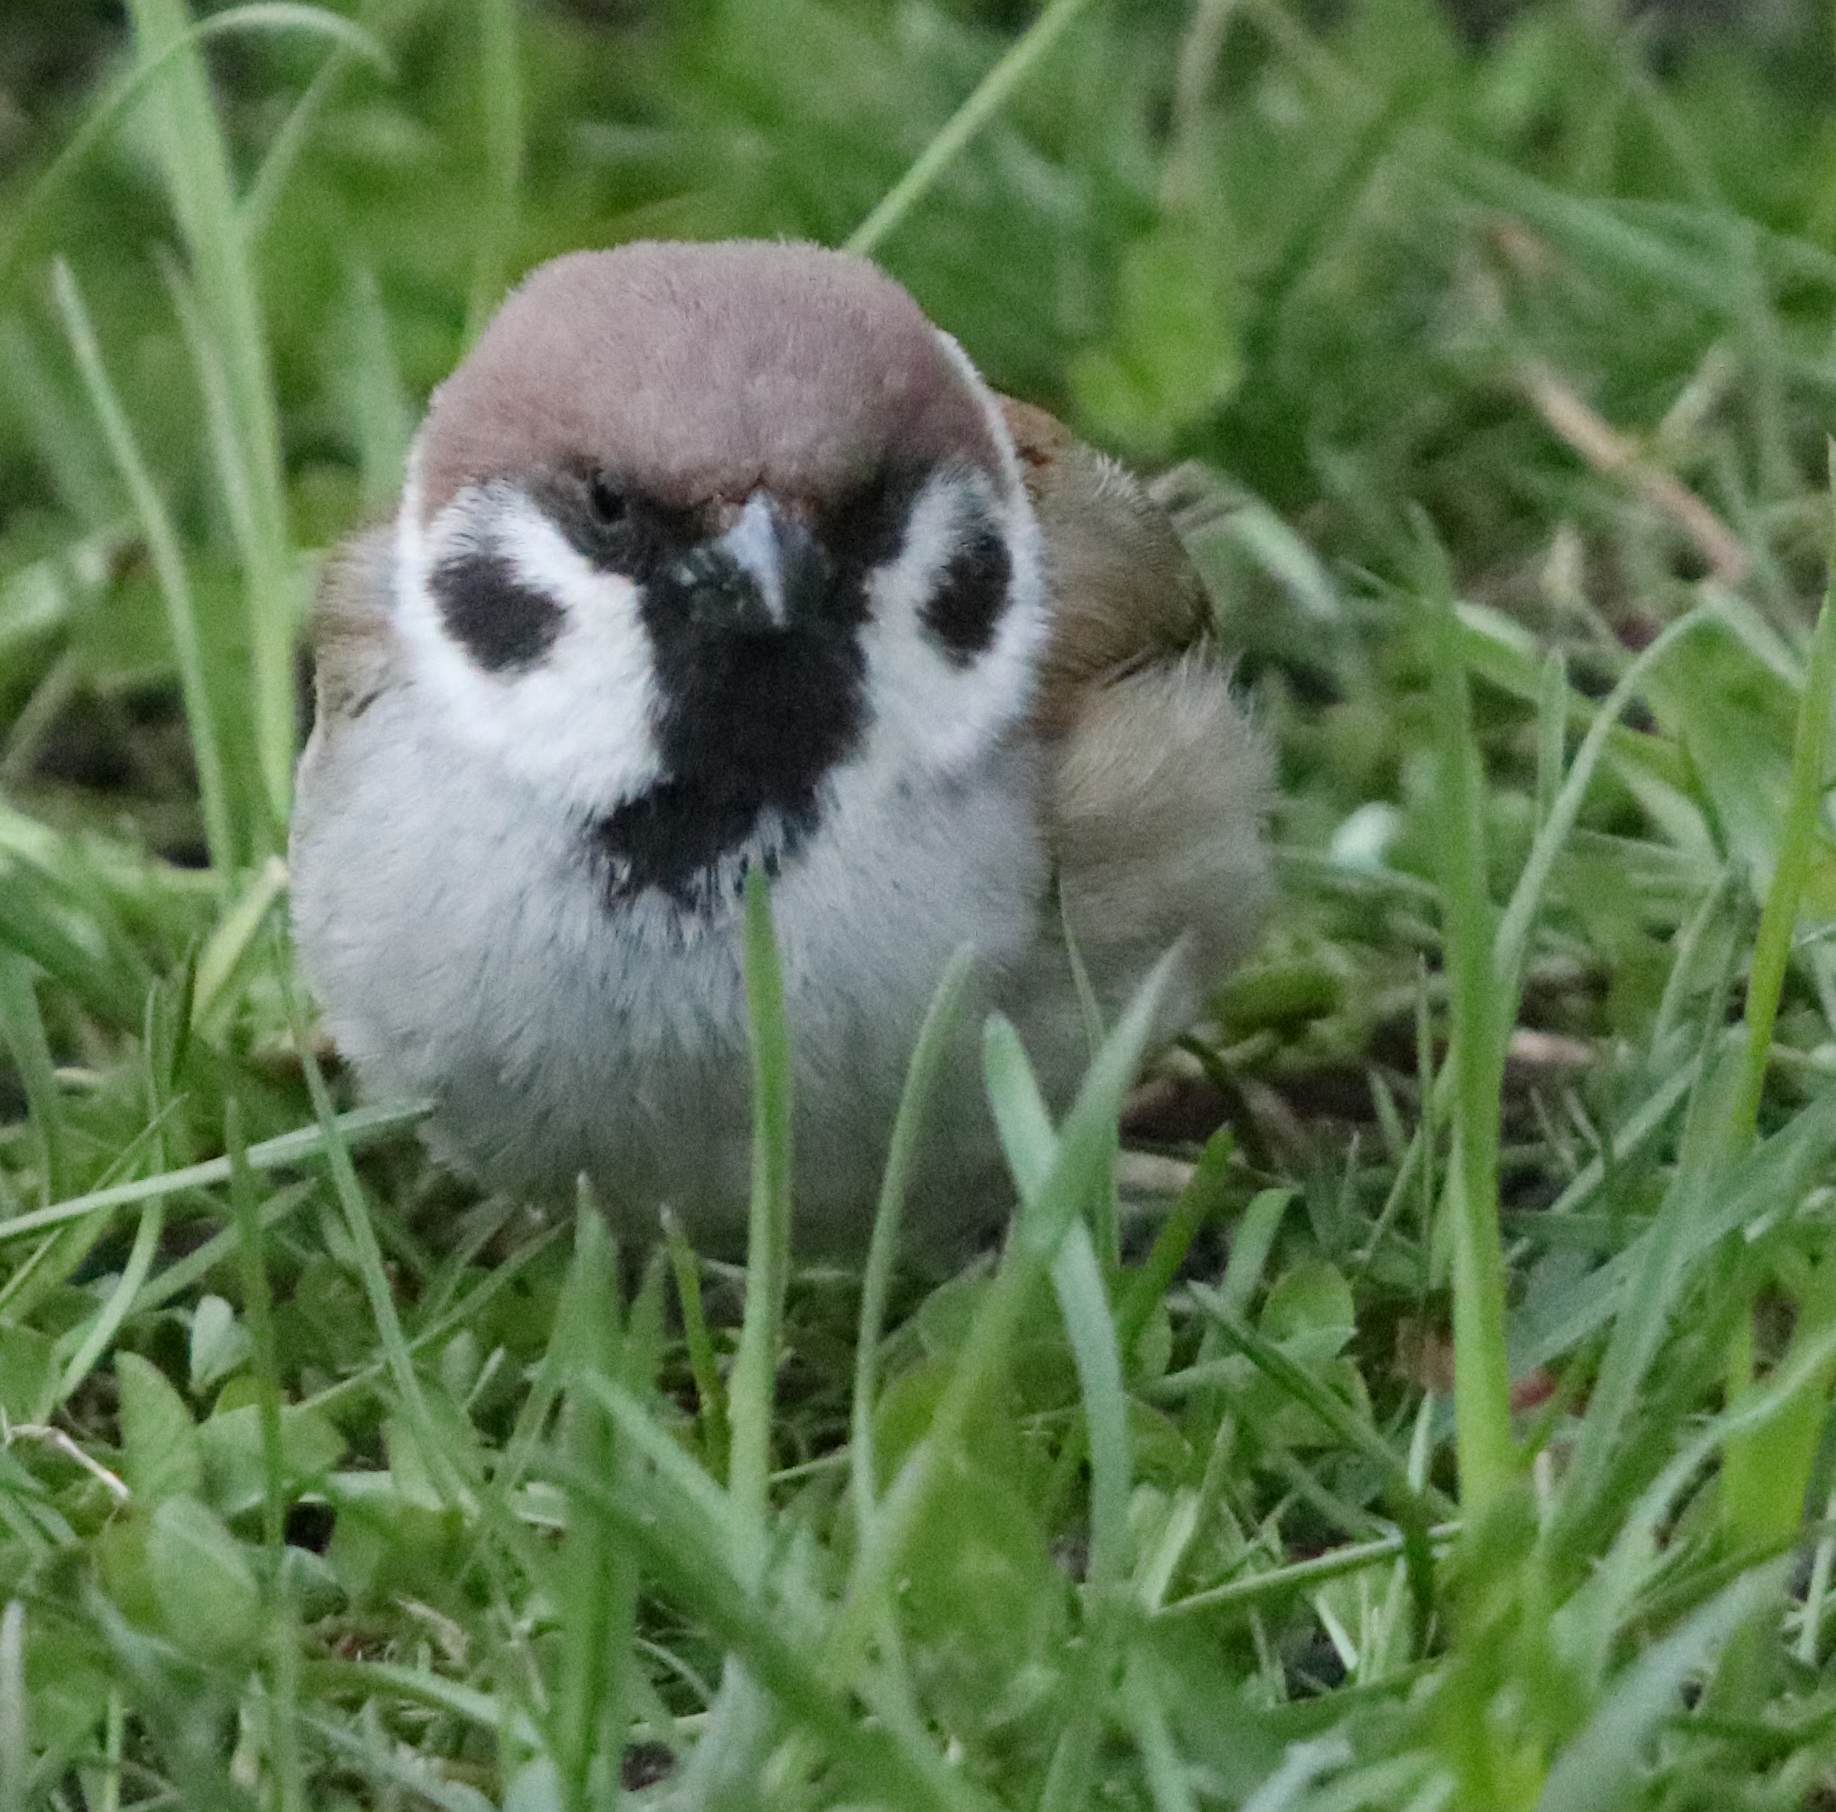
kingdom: Animalia
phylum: Chordata
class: Aves
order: Passeriformes
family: Passeridae
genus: Passer
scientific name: Passer montanus
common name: Eurasian tree sparrow
